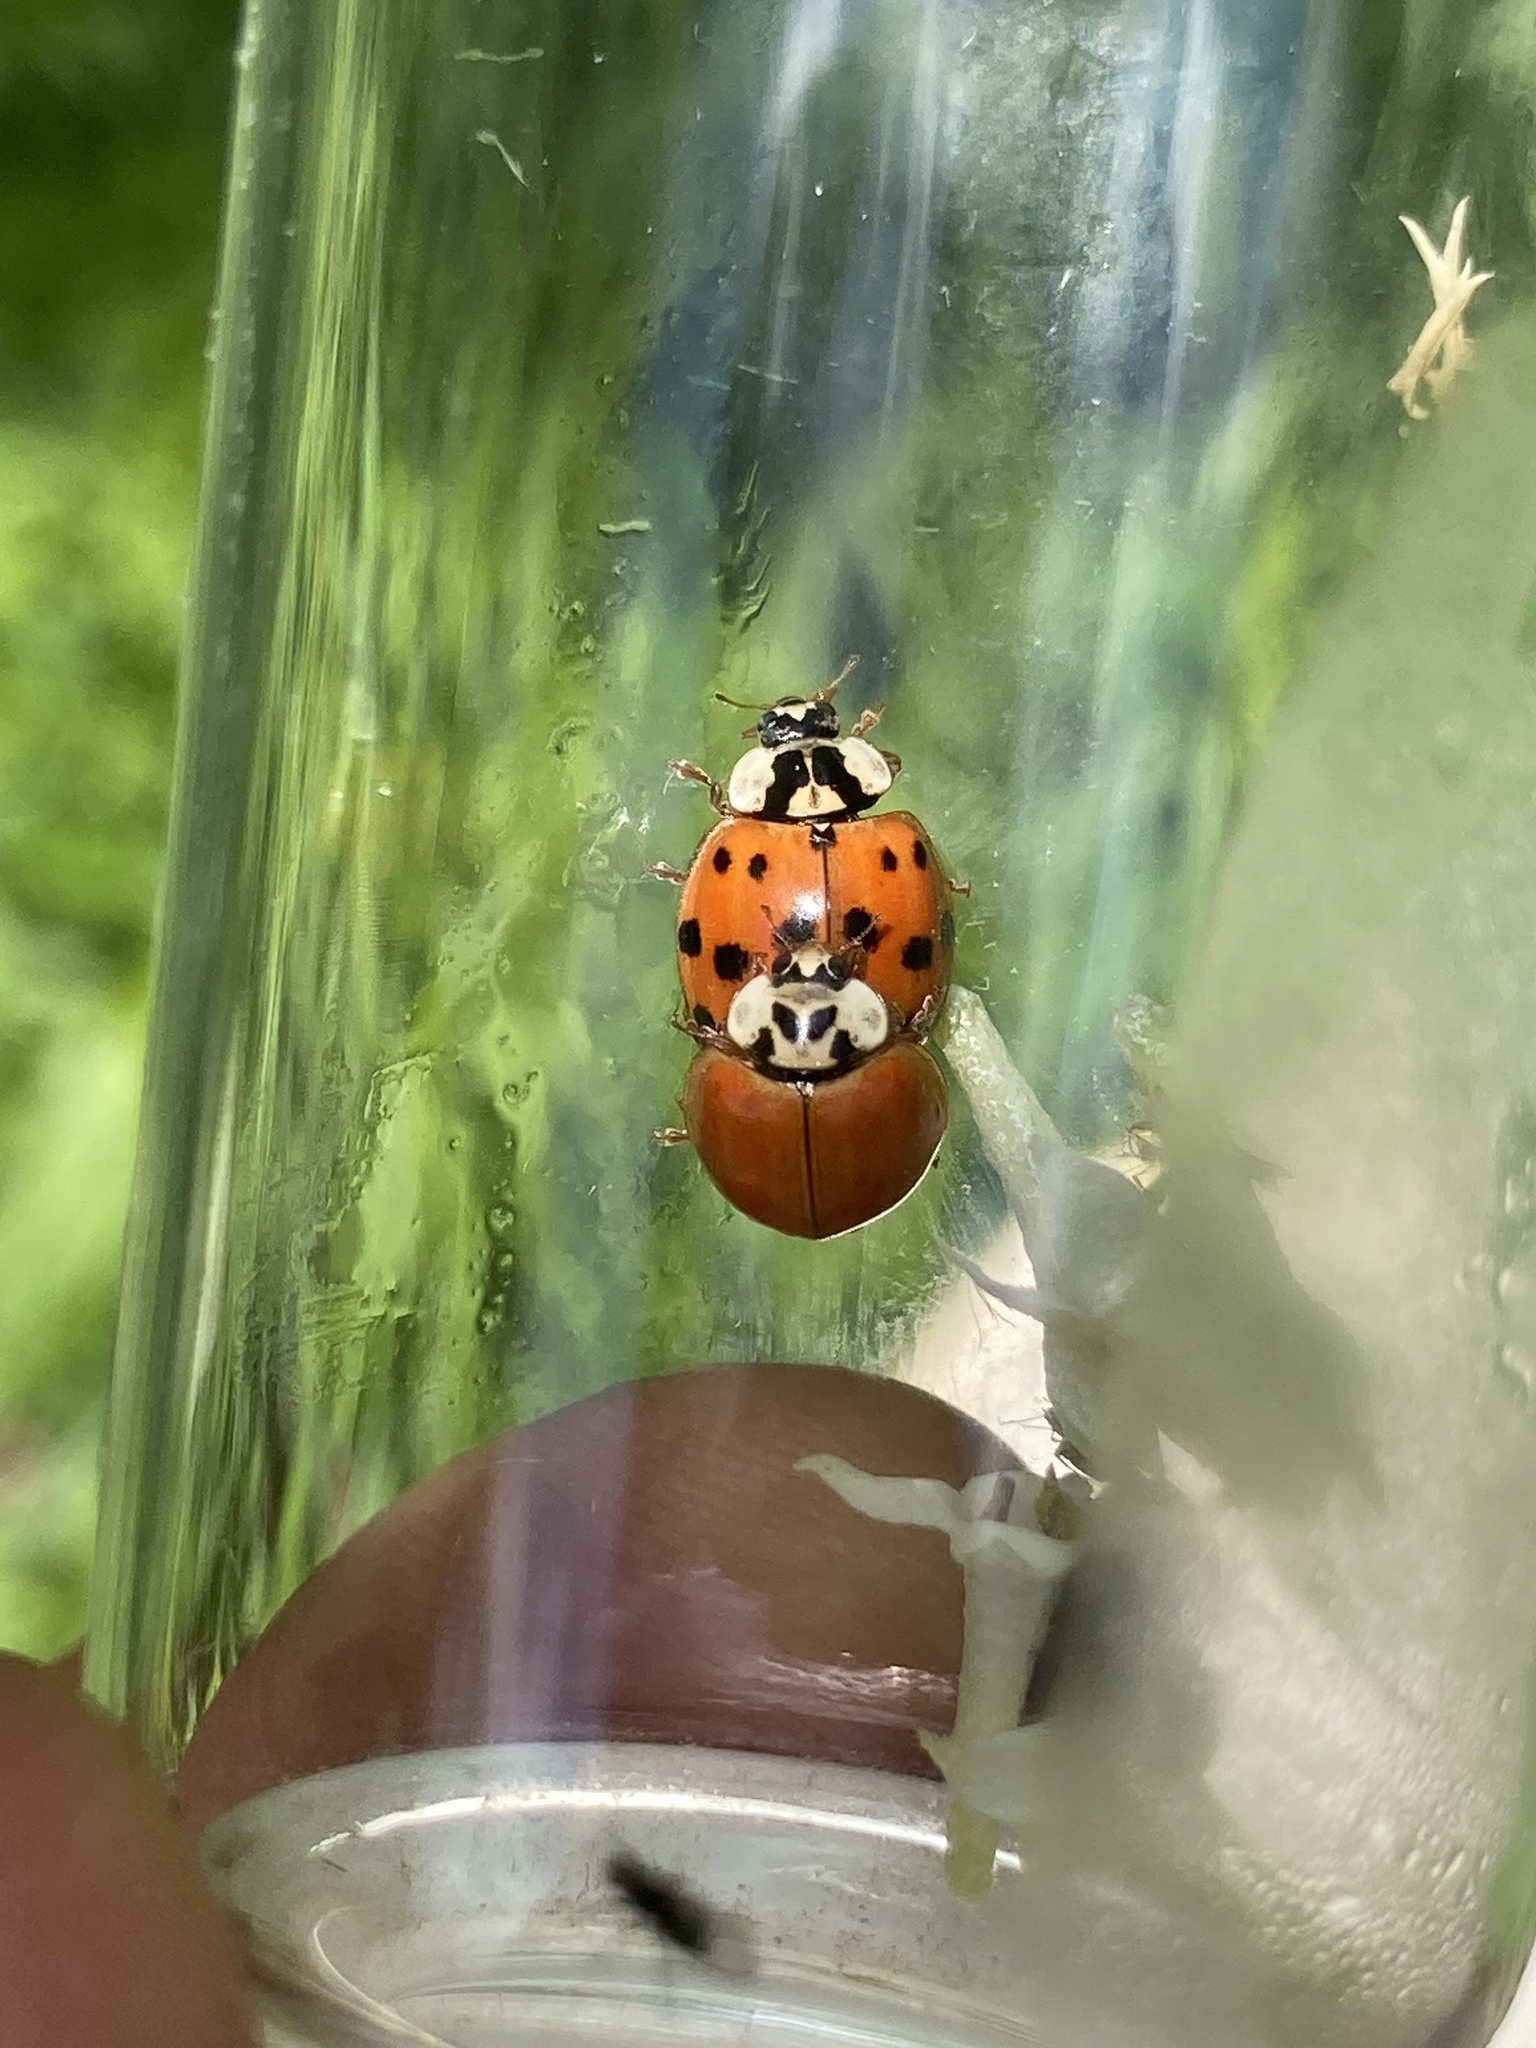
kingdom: Animalia
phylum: Arthropoda
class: Insecta
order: Coleoptera
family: Coccinellidae
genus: Harmonia
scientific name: Harmonia axyridis
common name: Harlequin ladybird
